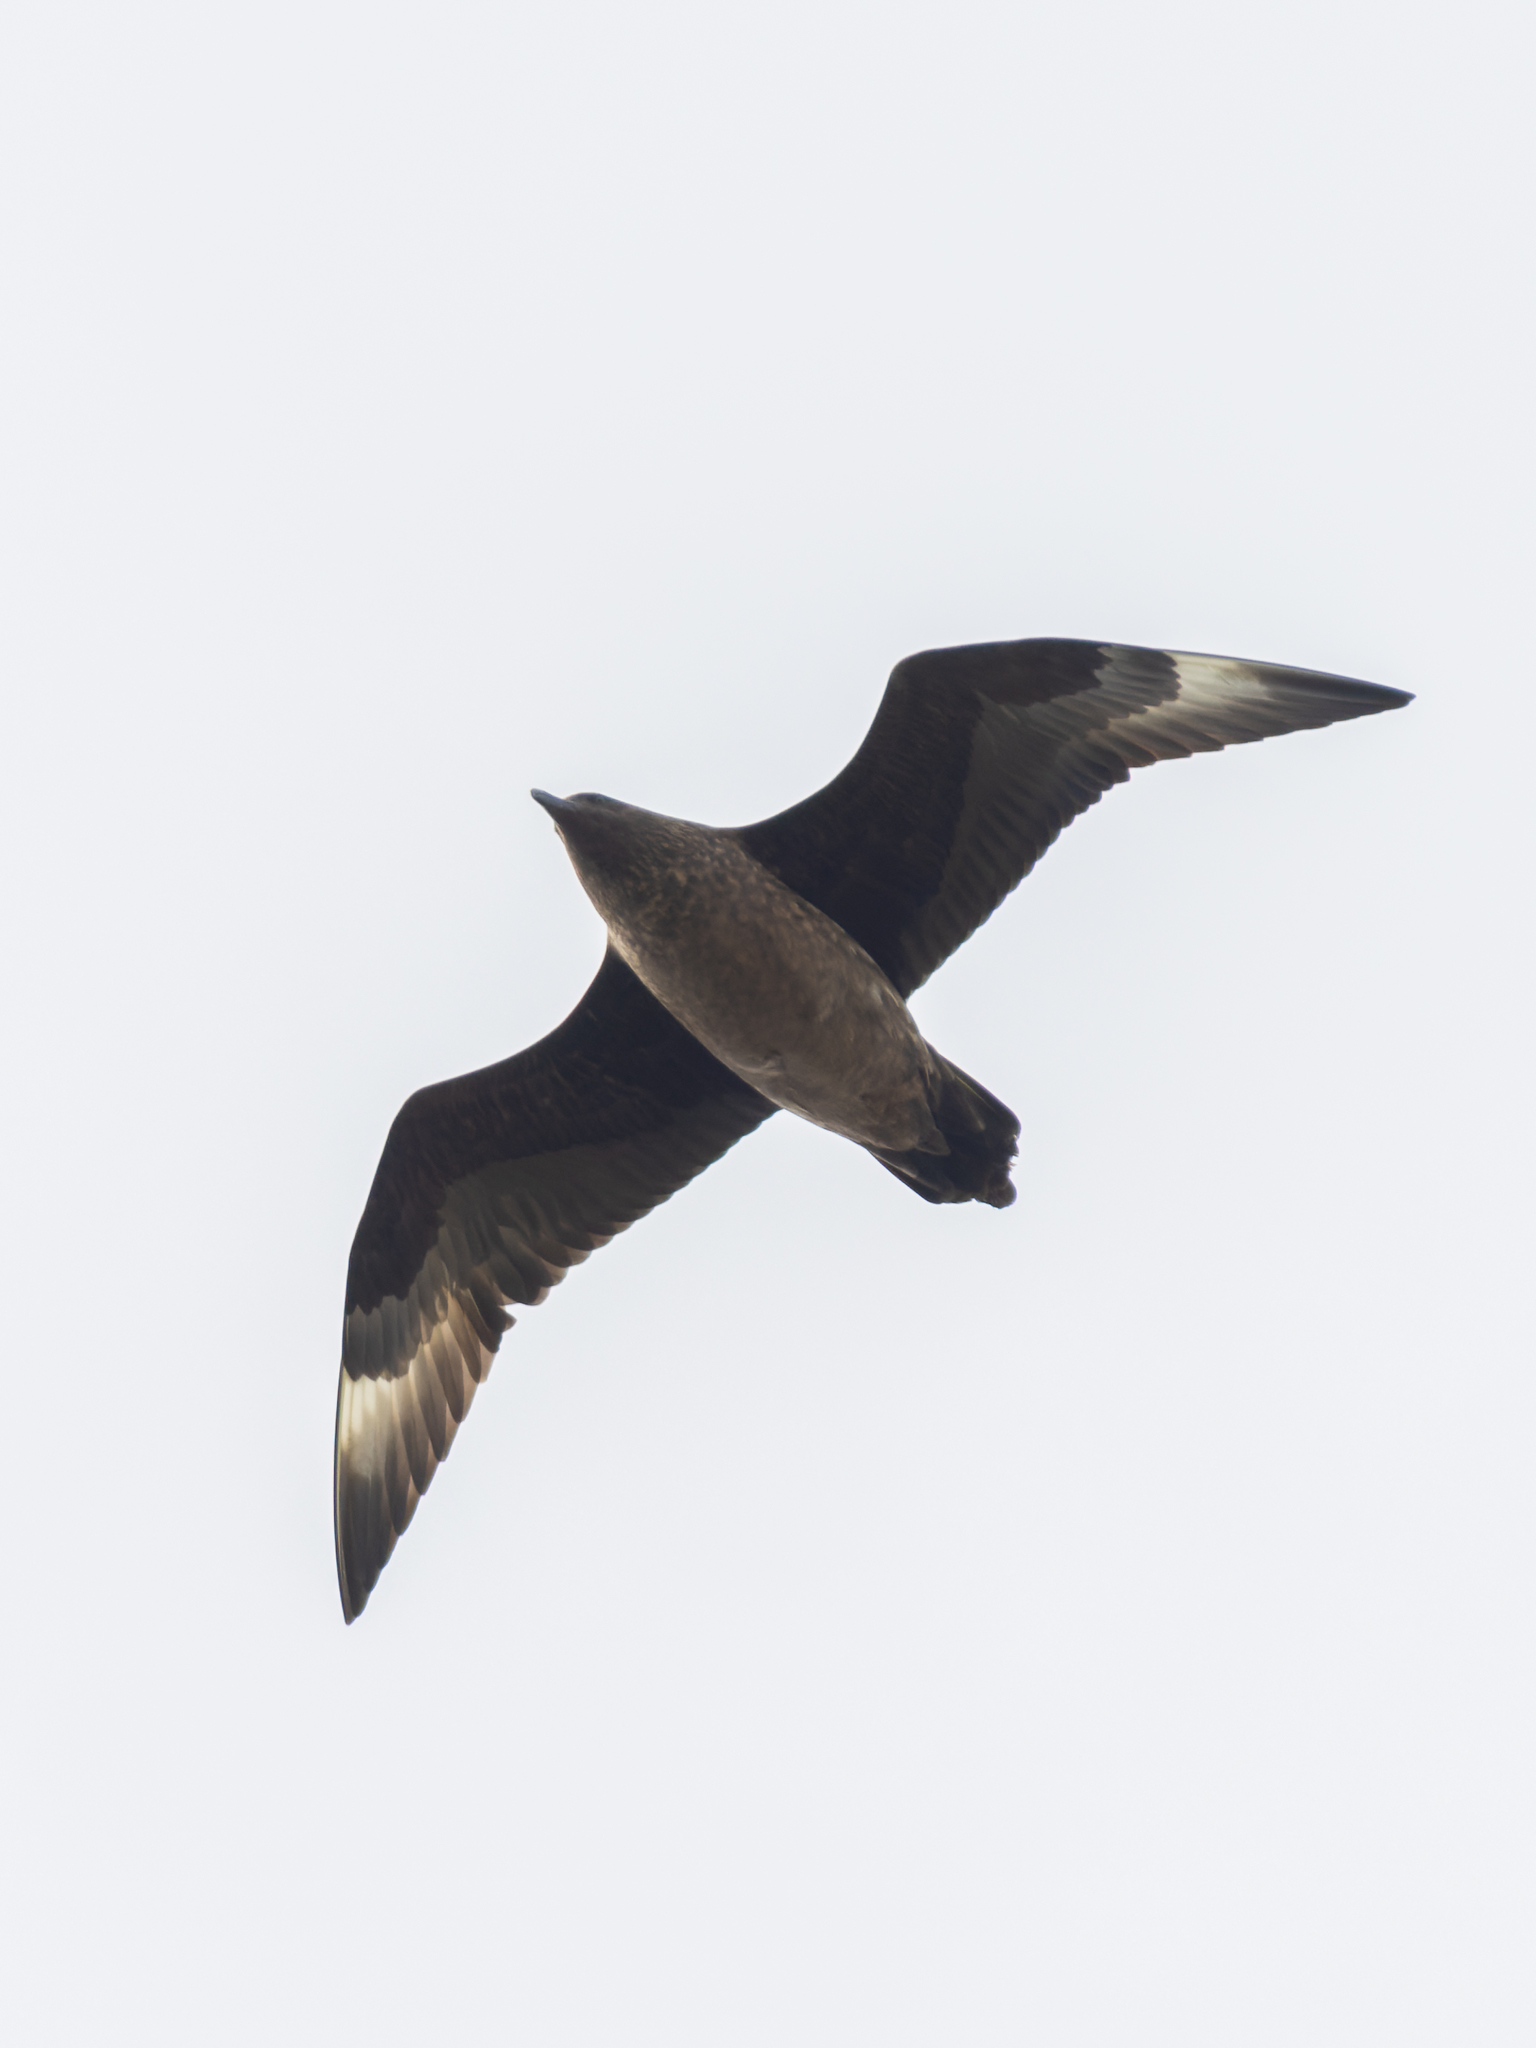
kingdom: Animalia
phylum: Chordata
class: Aves
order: Charadriiformes
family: Stercorariidae
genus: Stercorarius
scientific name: Stercorarius skua
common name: Great skua
